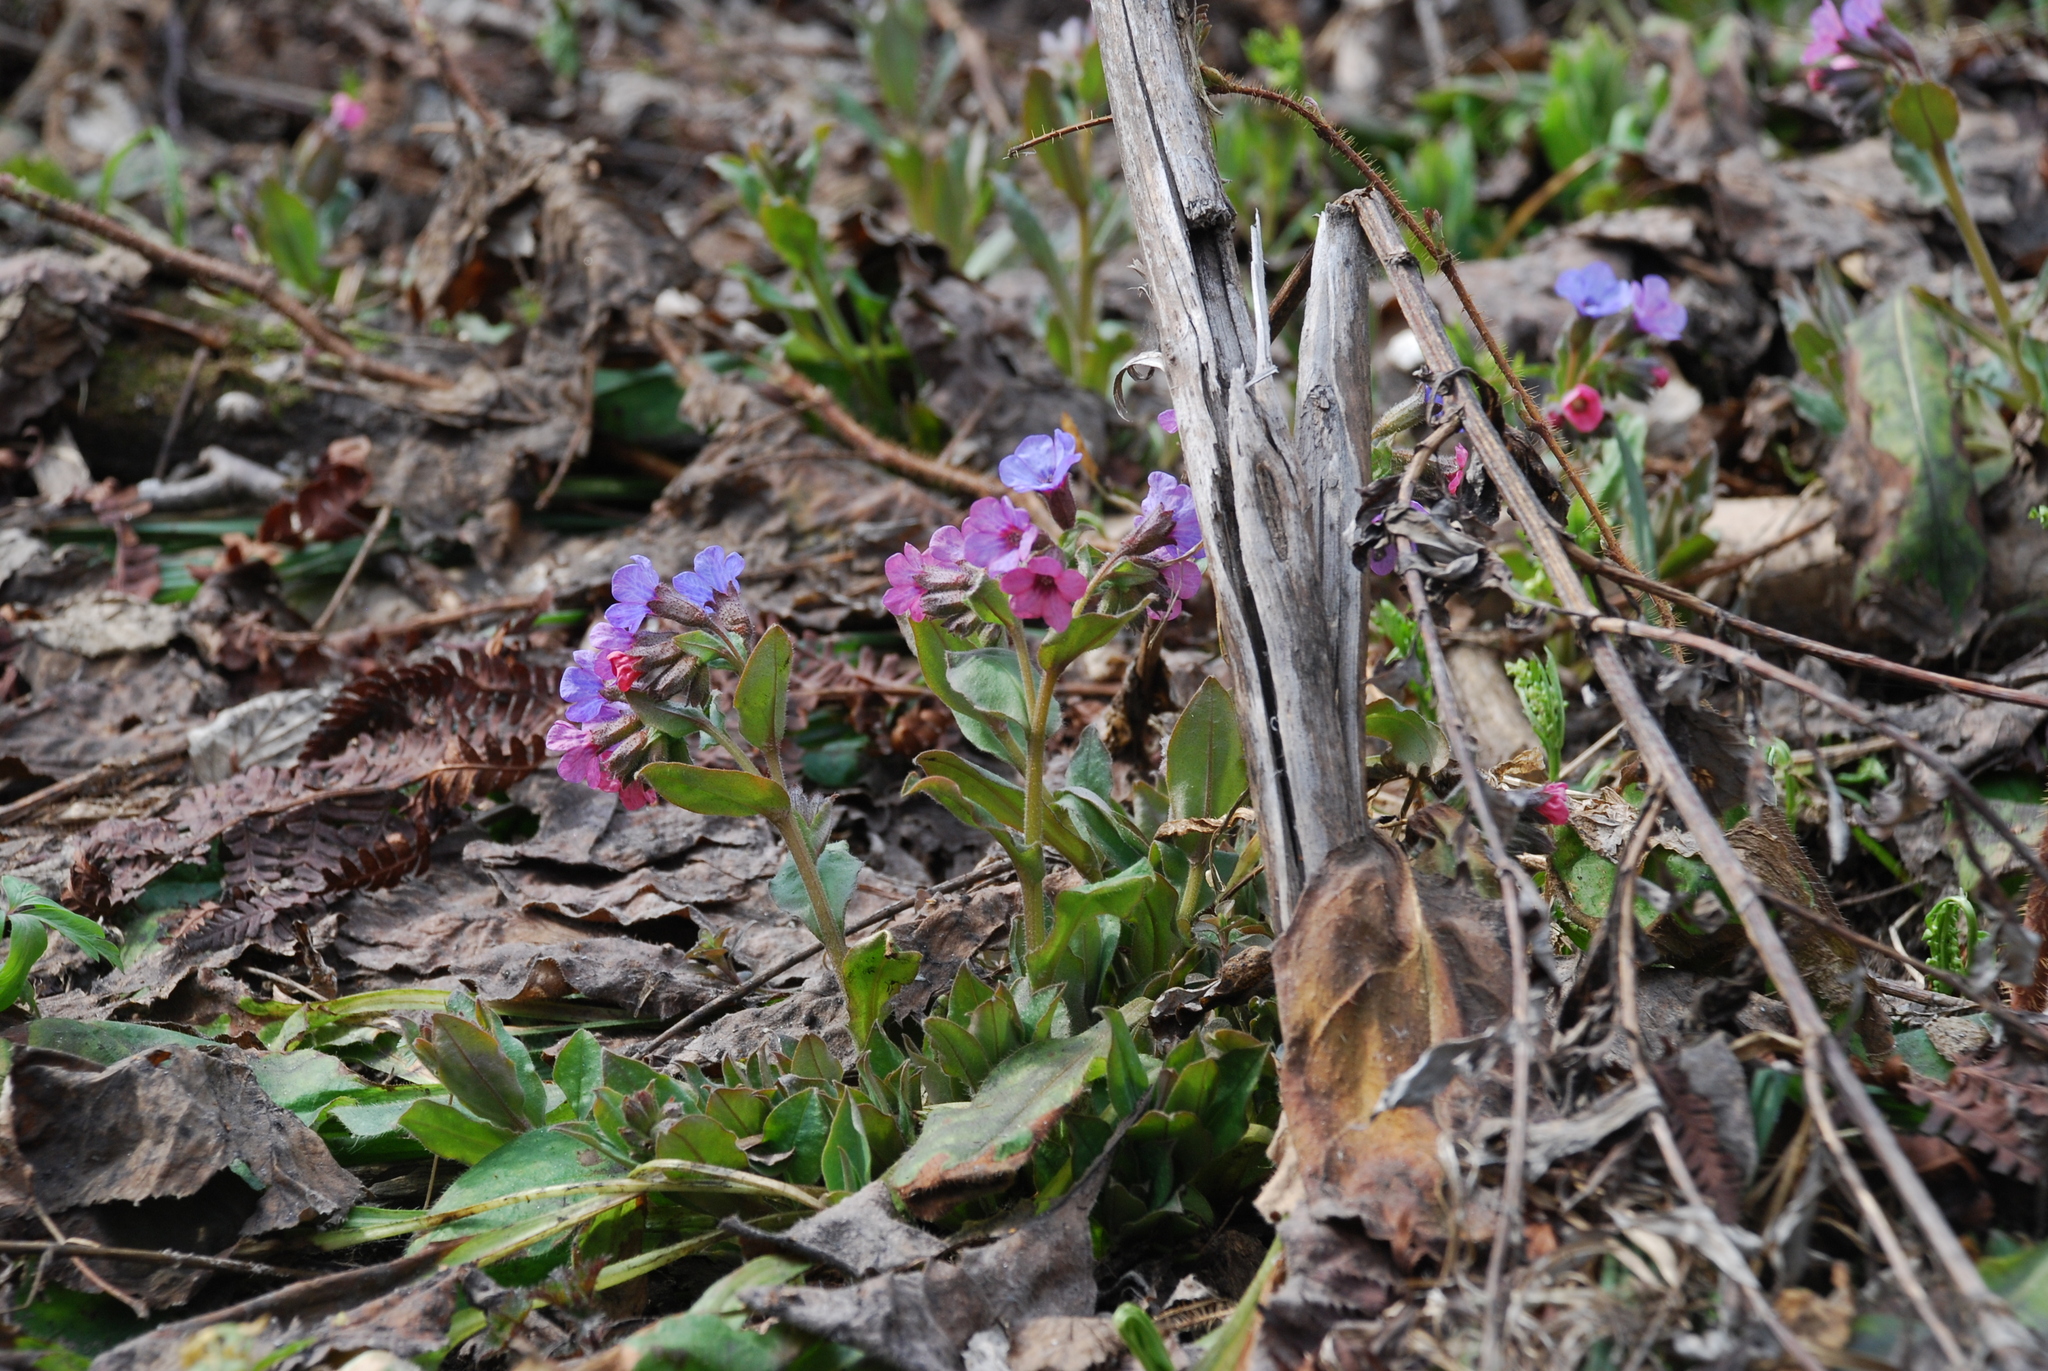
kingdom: Plantae
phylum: Tracheophyta
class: Magnoliopsida
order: Boraginales
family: Boraginaceae
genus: Pulmonaria
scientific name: Pulmonaria obscura
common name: Suffolk lungwort
